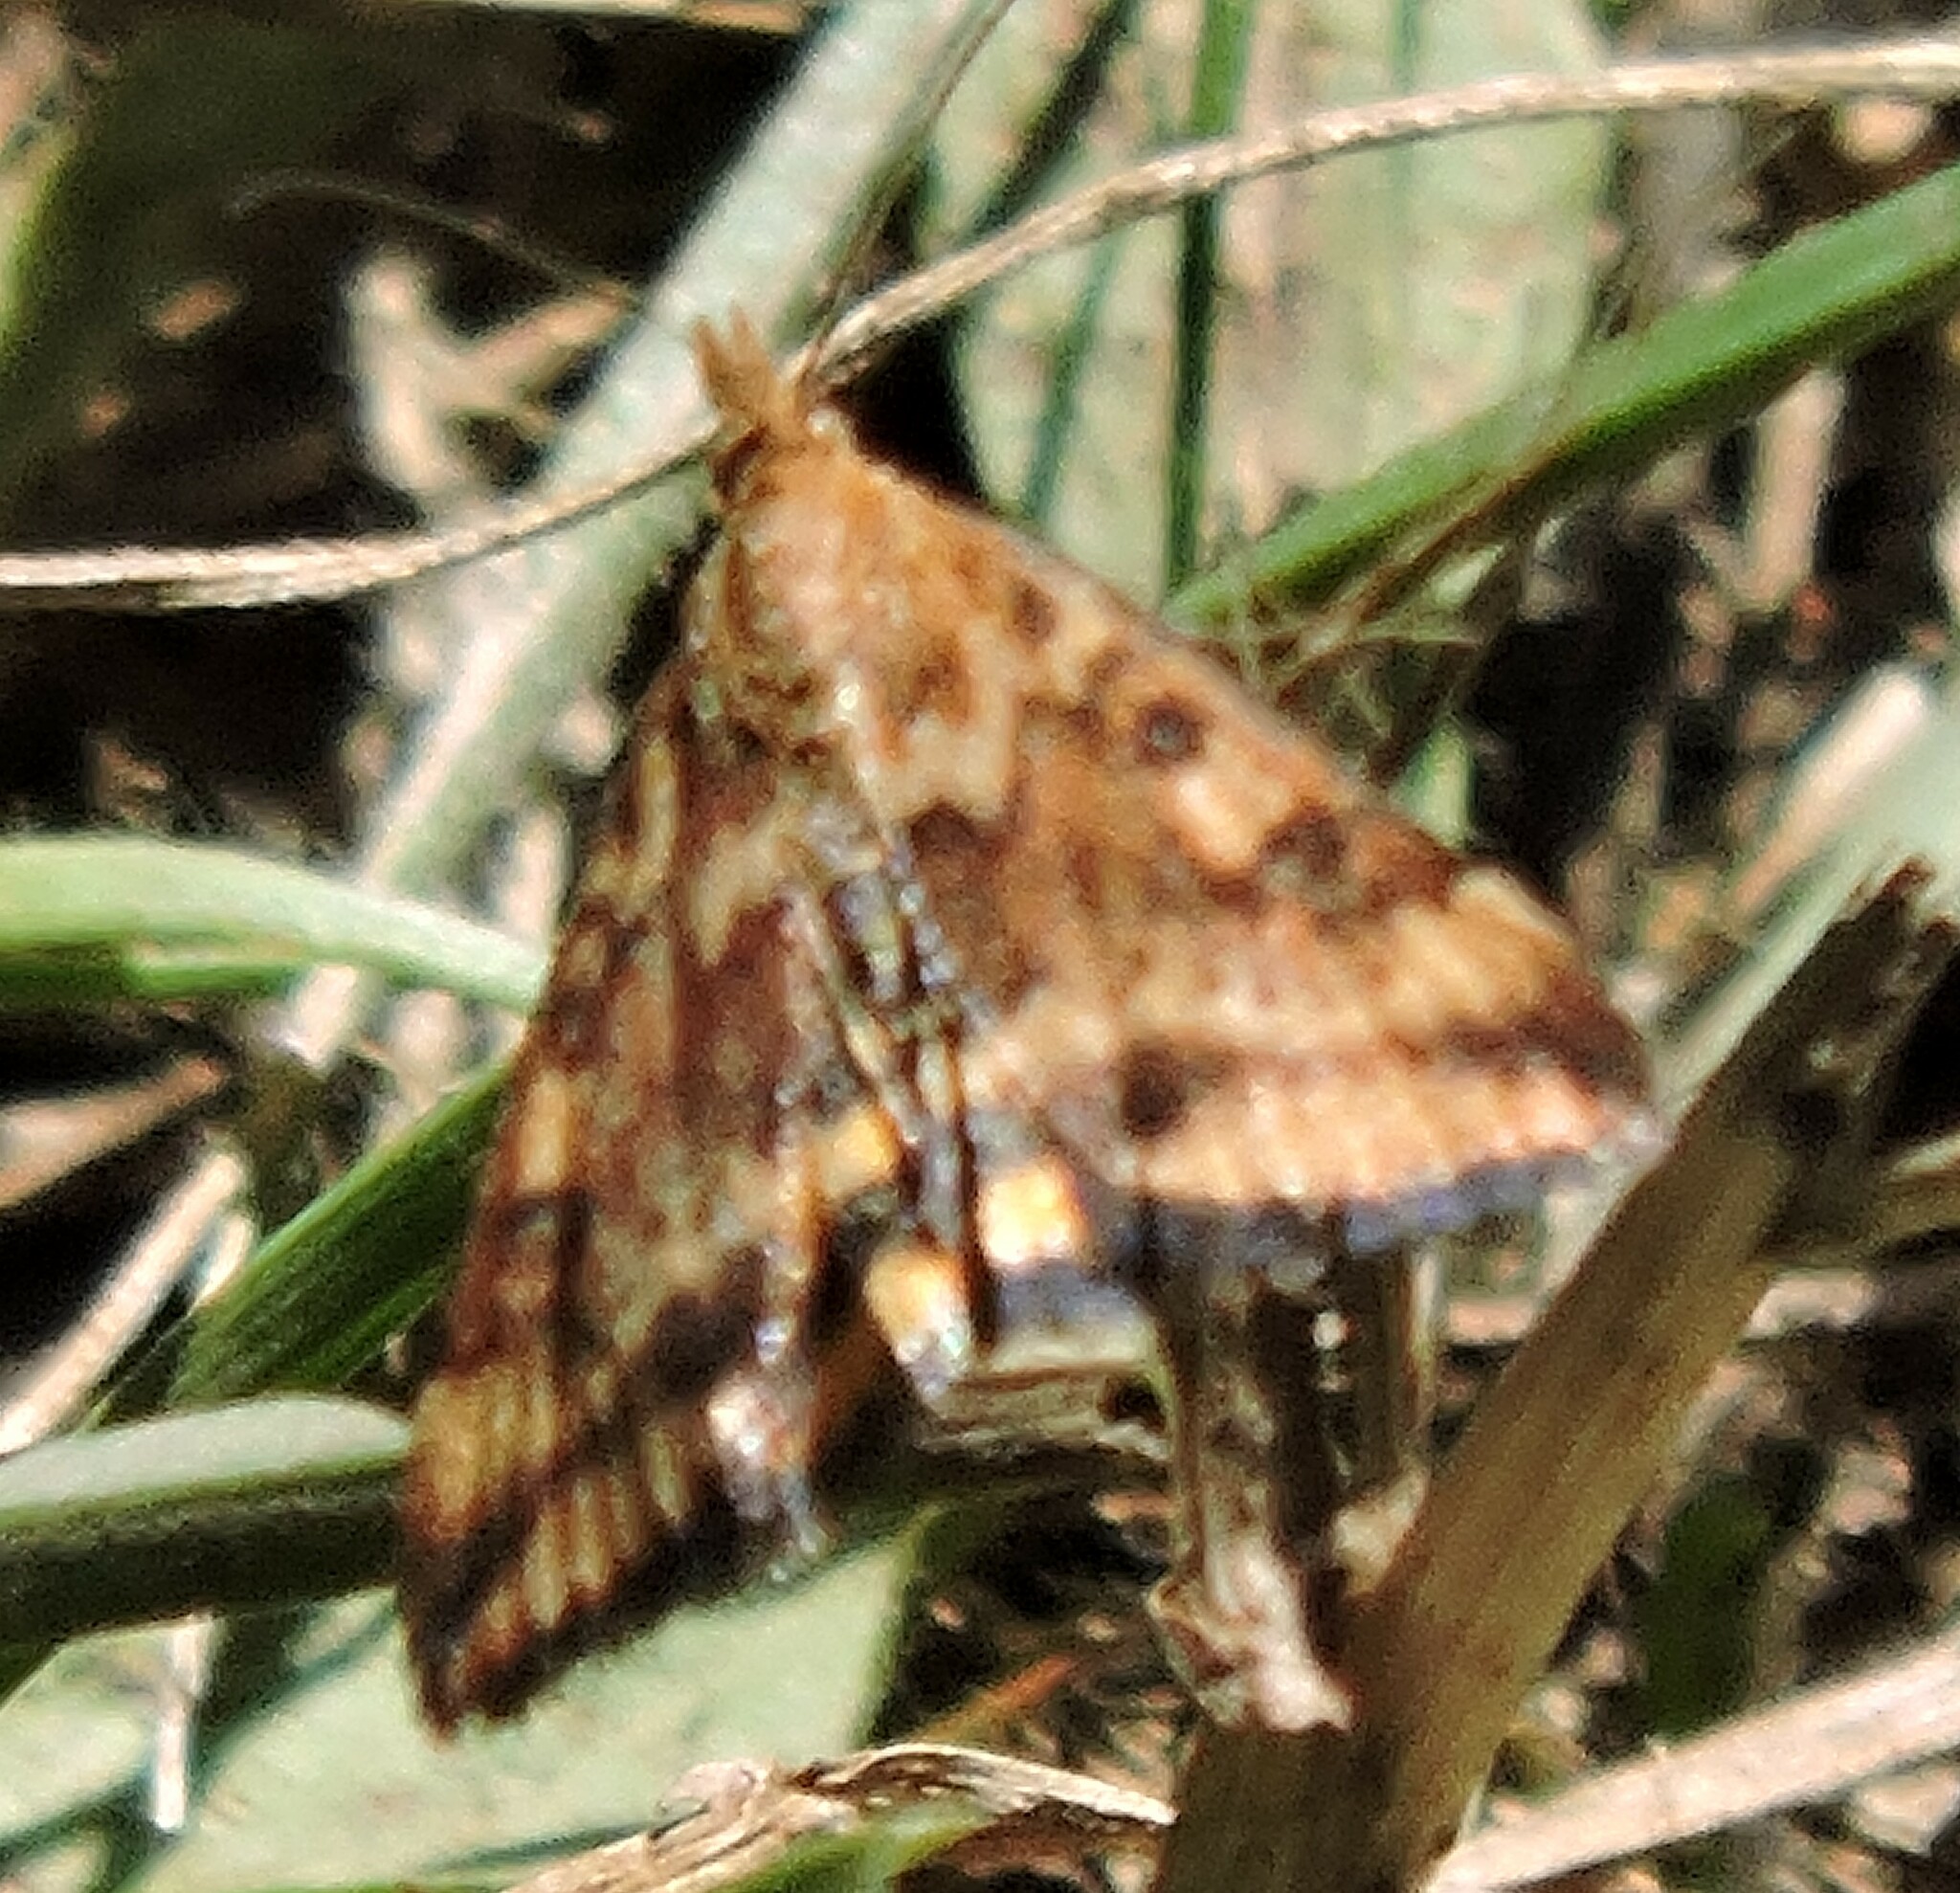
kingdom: Animalia
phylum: Arthropoda
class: Insecta
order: Lepidoptera
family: Crambidae
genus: Pyrausta
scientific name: Pyrausta subsequalis
